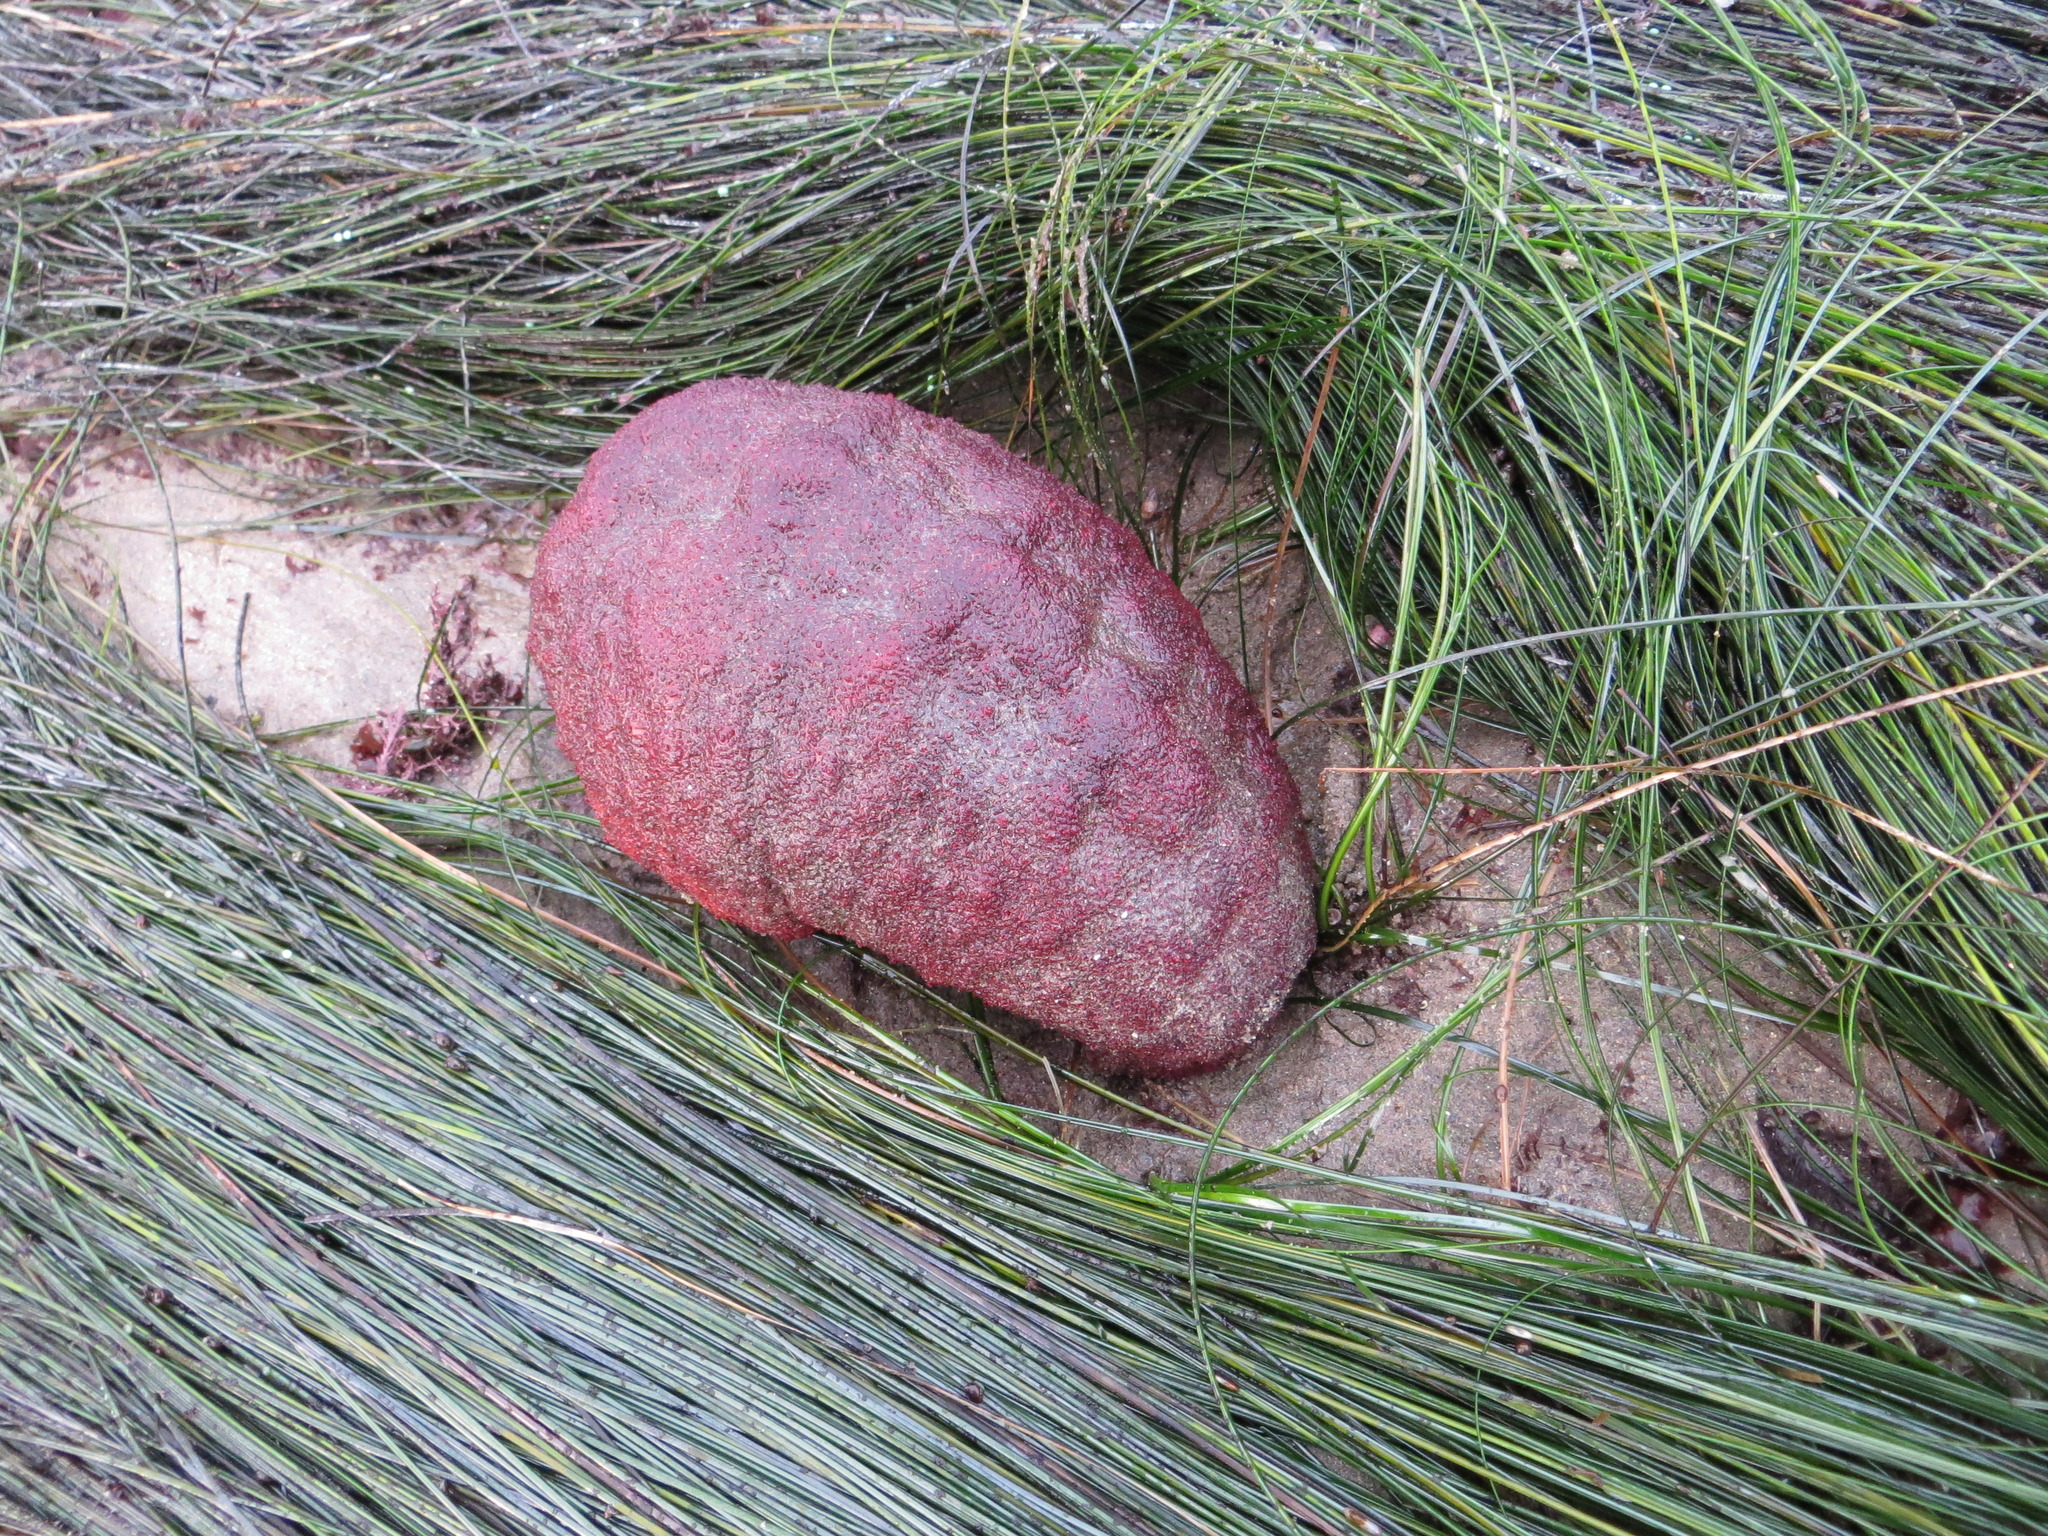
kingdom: Animalia
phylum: Mollusca
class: Polyplacophora
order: Chitonida
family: Acanthochitonidae
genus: Cryptochiton
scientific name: Cryptochiton stelleri
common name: Giant pacific chiton
